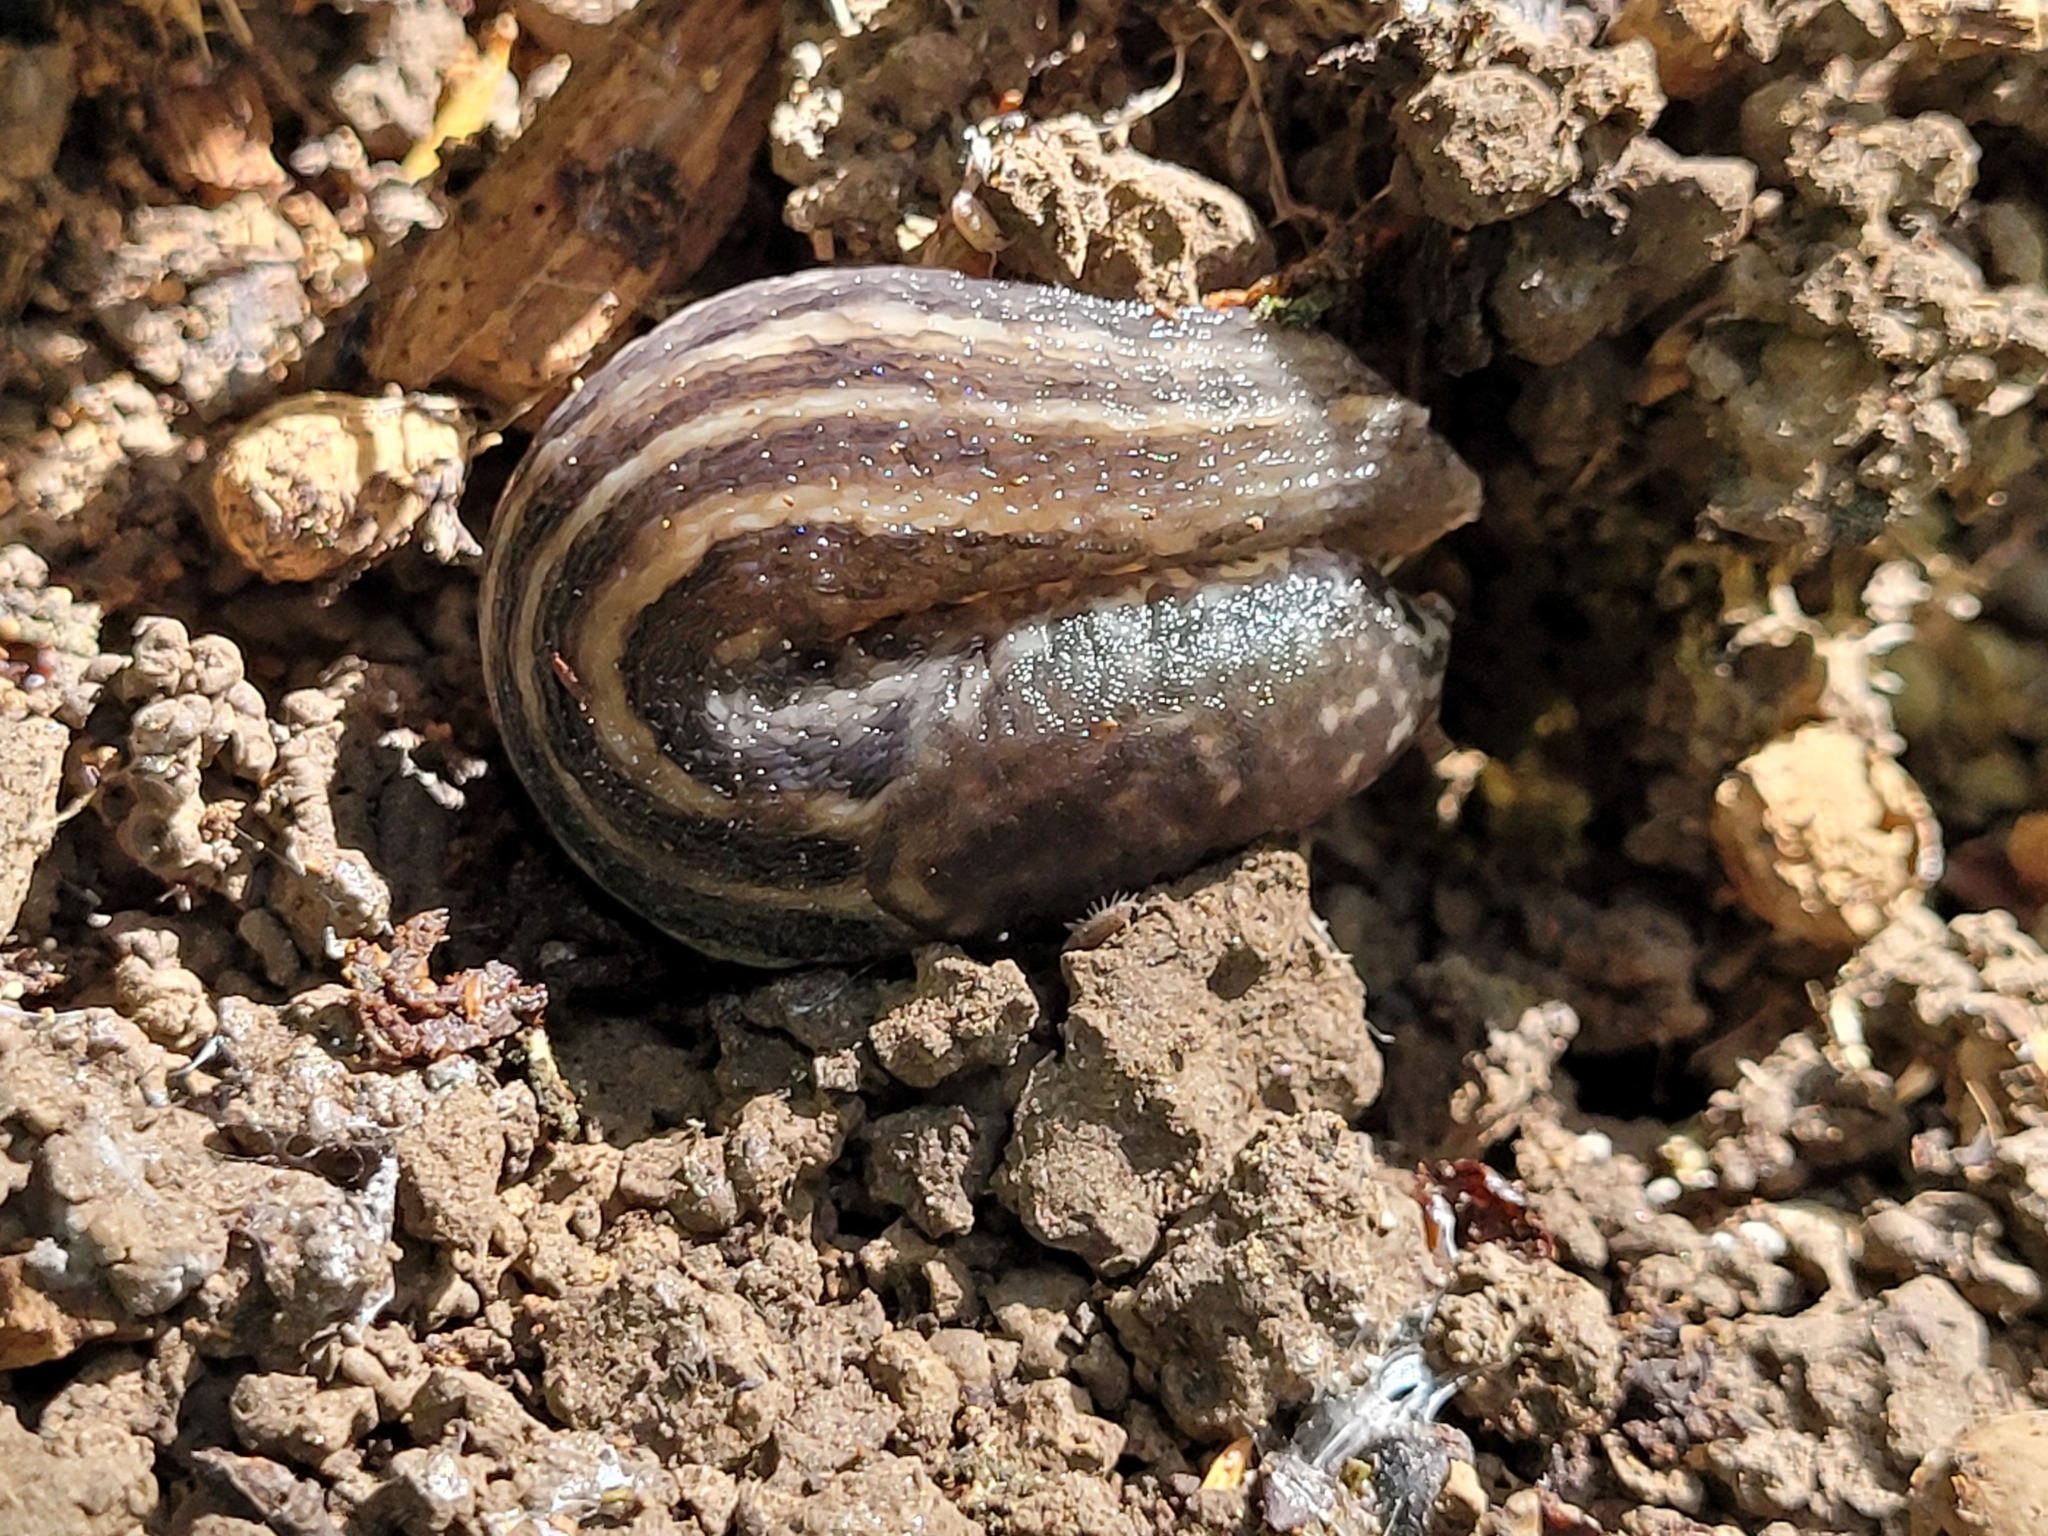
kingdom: Animalia
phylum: Mollusca
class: Gastropoda
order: Stylommatophora
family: Limacidae
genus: Limax
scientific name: Limax maximus
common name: Great grey slug
